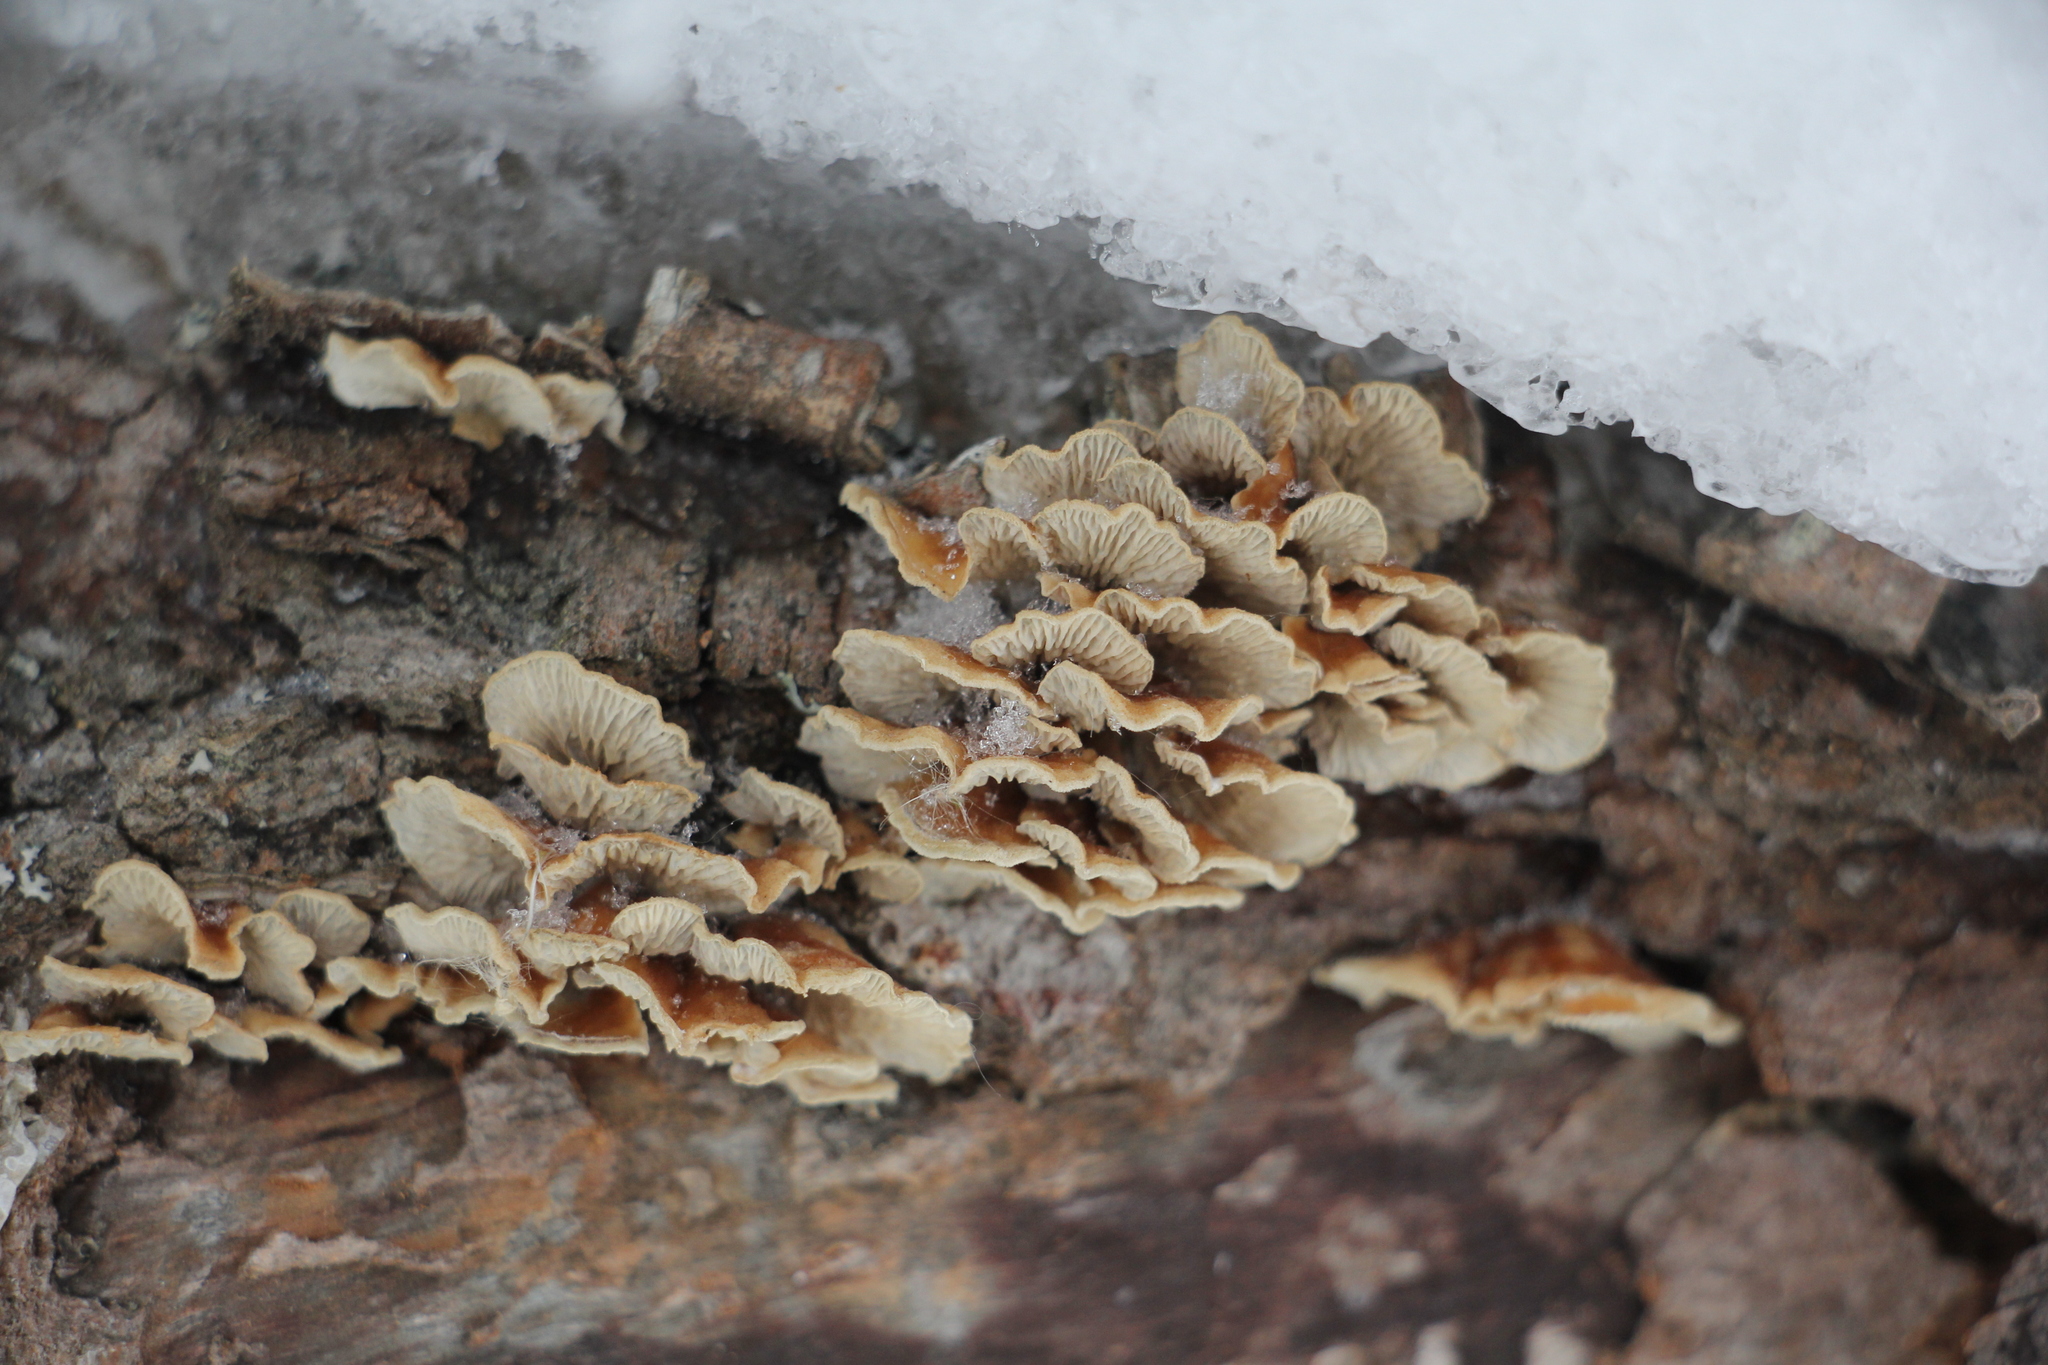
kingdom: Fungi
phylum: Basidiomycota
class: Agaricomycetes
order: Amylocorticiales
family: Amylocorticiaceae
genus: Plicaturopsis
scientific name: Plicaturopsis crispa
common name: Crimped gill
